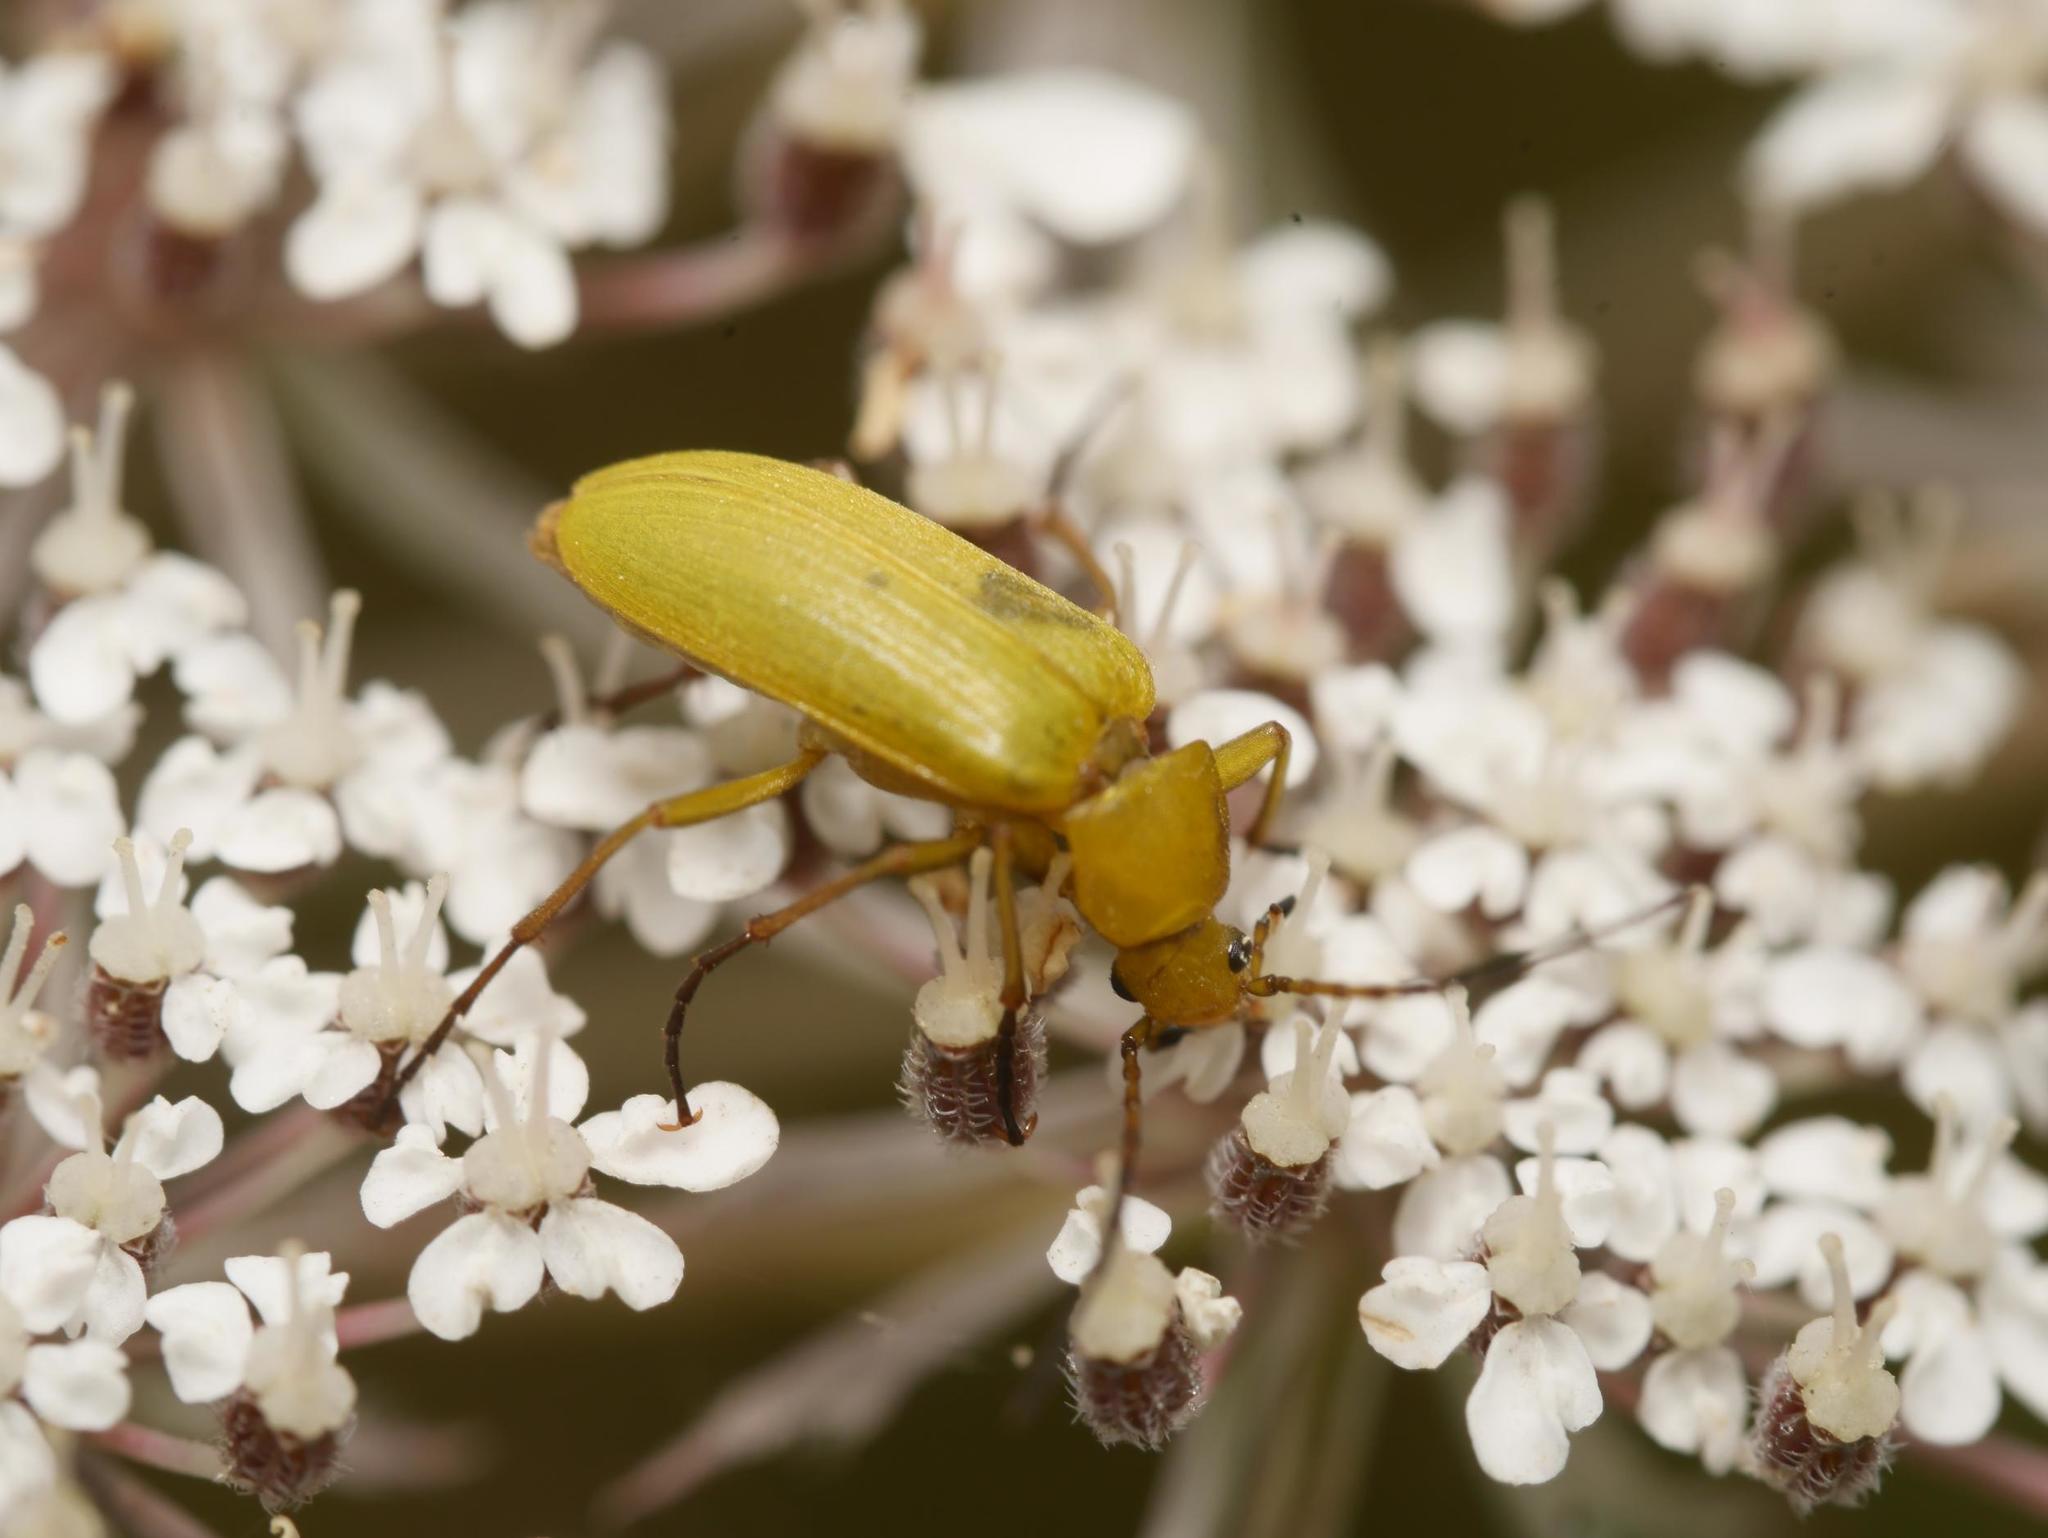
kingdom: Animalia
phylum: Arthropoda
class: Insecta
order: Coleoptera
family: Tenebrionidae
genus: Cteniopus
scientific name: Cteniopus sulphureus
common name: Sulphur beetle
